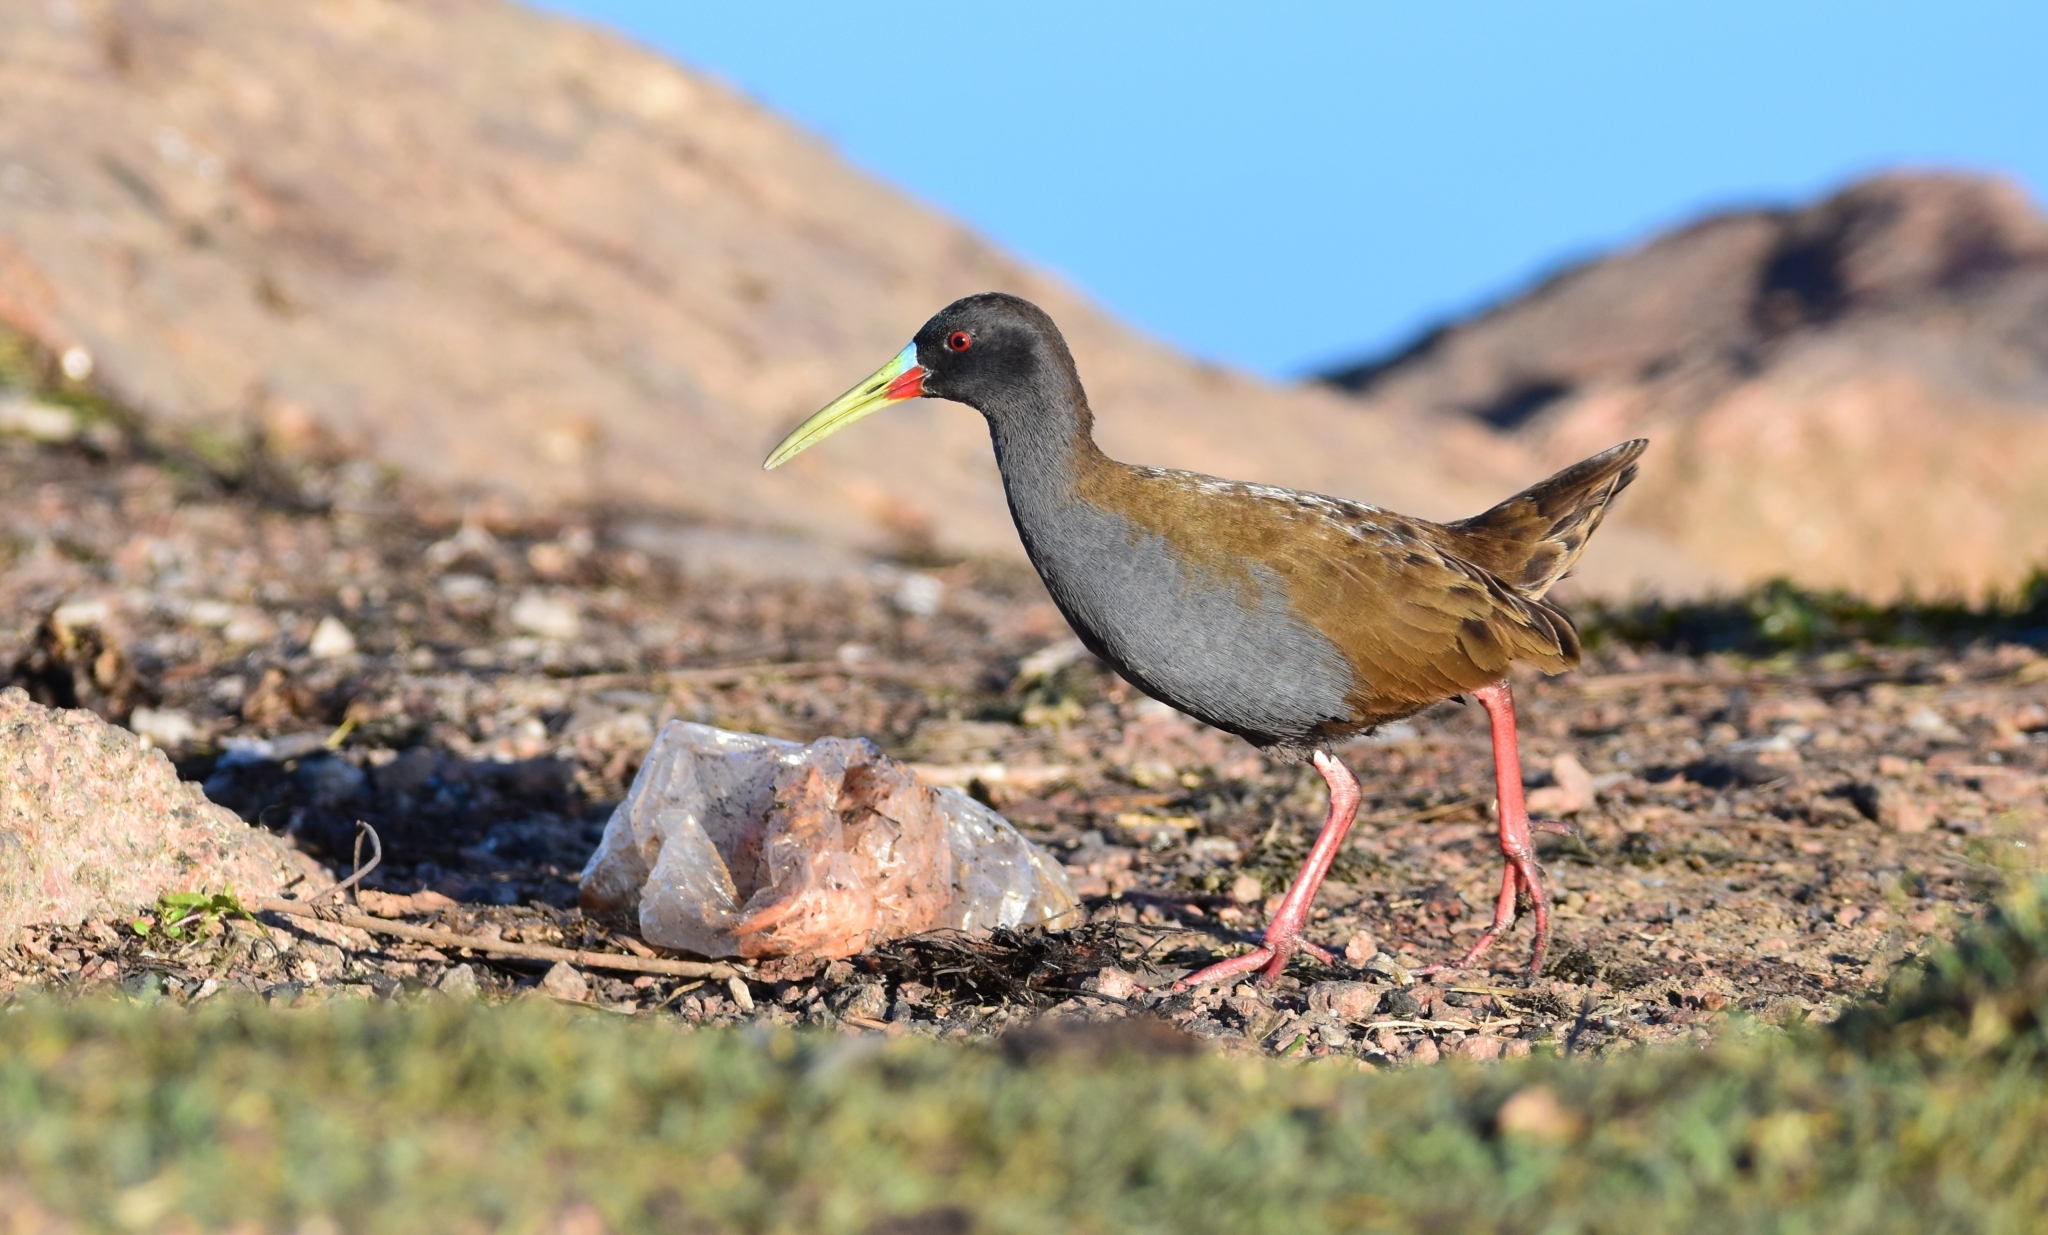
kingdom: Animalia
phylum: Chordata
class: Aves
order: Gruiformes
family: Rallidae
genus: Pardirallus
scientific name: Pardirallus sanguinolentus
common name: Plumbeous rail
